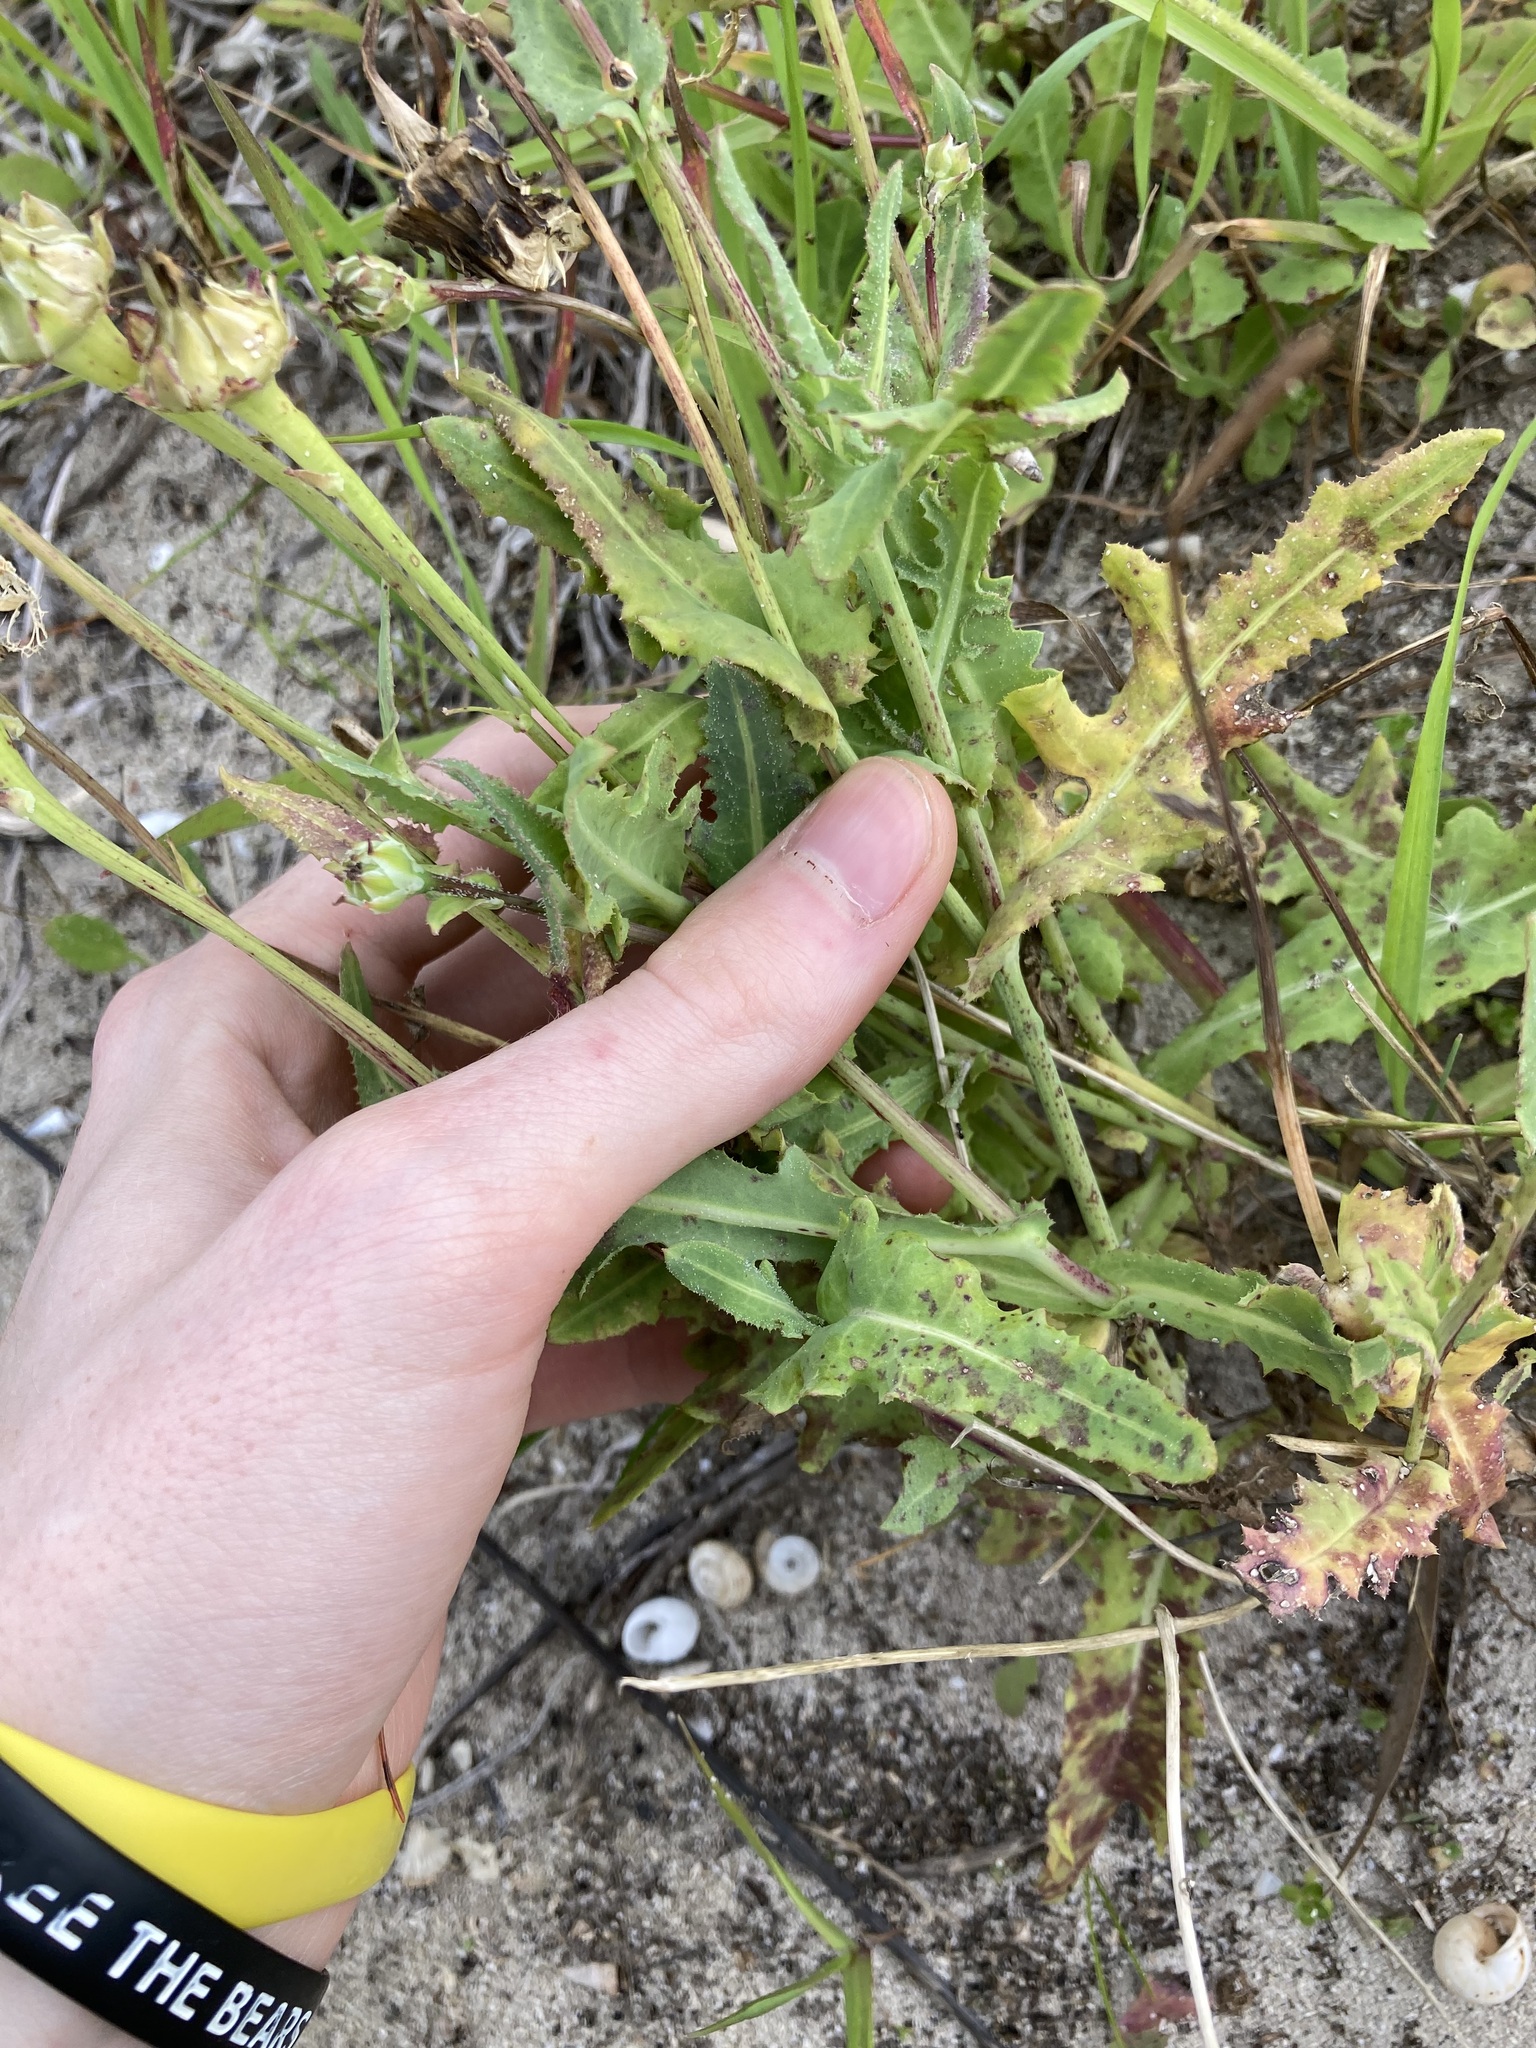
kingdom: Plantae
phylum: Tracheophyta
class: Magnoliopsida
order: Asterales
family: Asteraceae
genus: Reichardia
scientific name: Reichardia tingitana
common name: Reichardia
